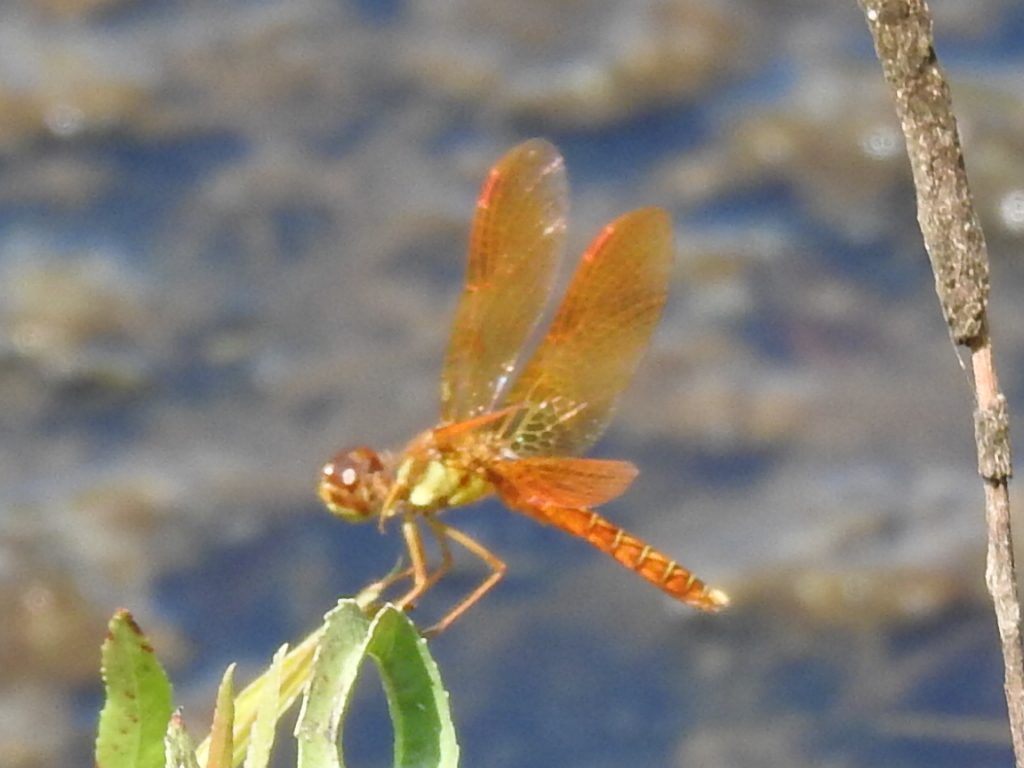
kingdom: Animalia
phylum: Arthropoda
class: Insecta
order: Odonata
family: Libellulidae
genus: Perithemis
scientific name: Perithemis tenera
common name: Eastern amberwing
